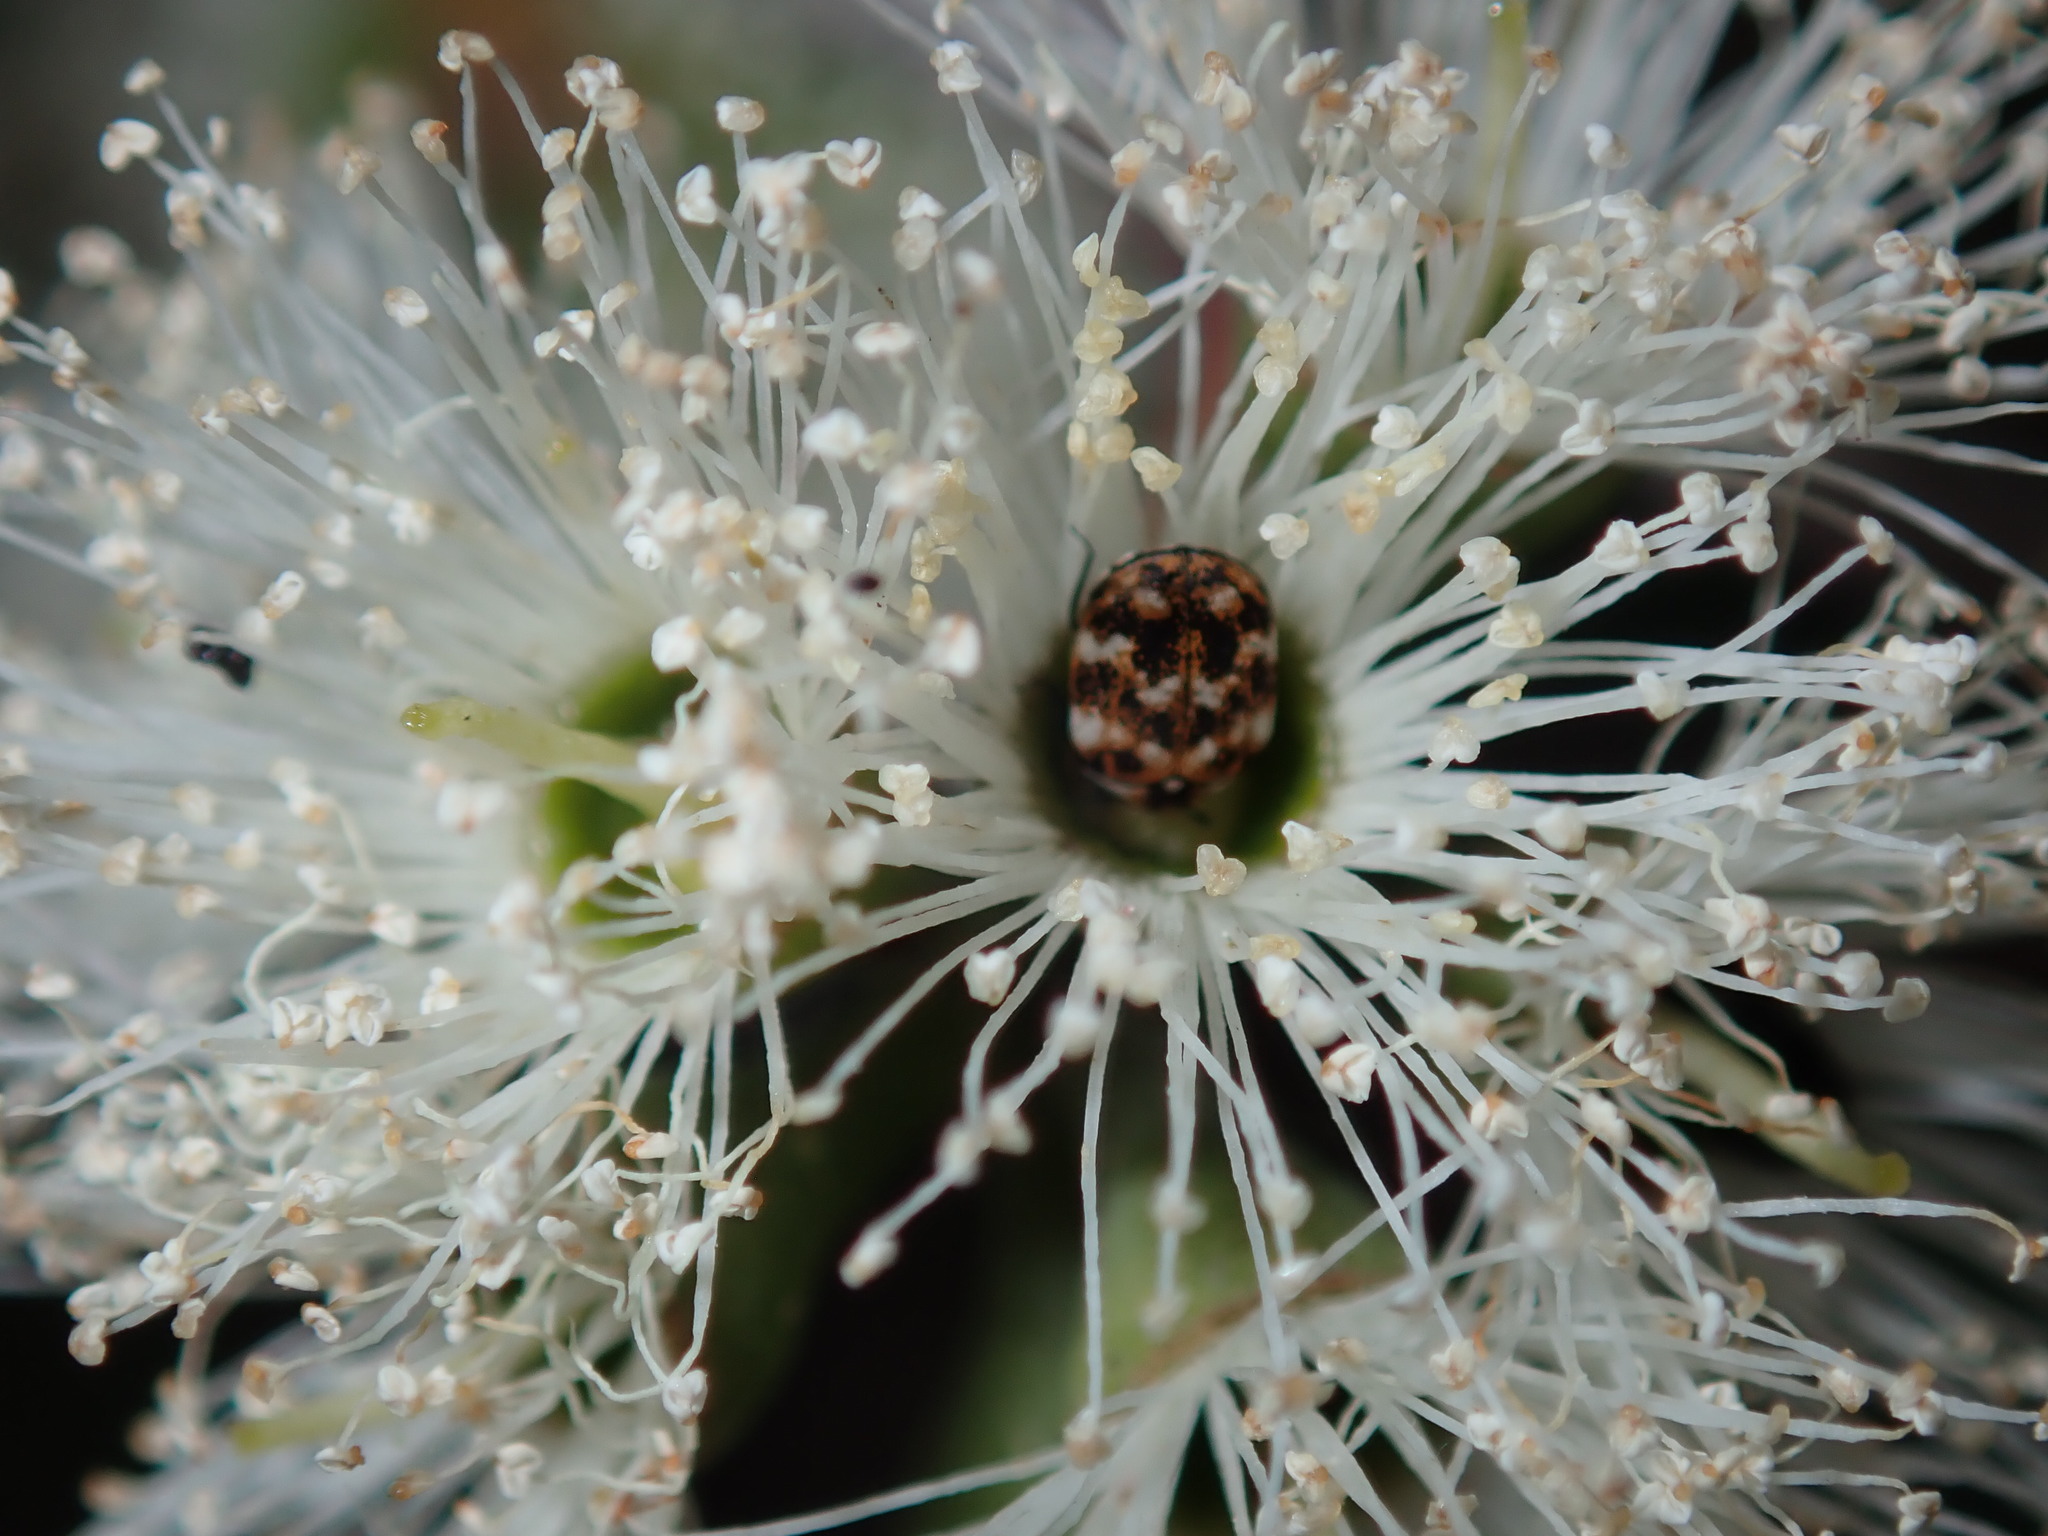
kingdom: Animalia
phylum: Arthropoda
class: Insecta
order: Coleoptera
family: Dermestidae
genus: Anthrenus
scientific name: Anthrenus verbasci
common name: Varied carpet beetle
